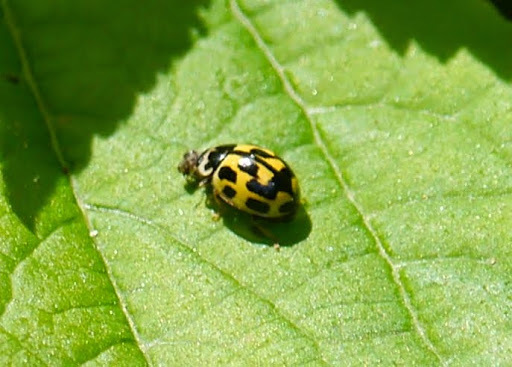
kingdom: Animalia
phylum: Arthropoda
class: Insecta
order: Coleoptera
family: Coccinellidae
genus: Propylaea
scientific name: Propylaea quatuordecimpunctata
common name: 14-spotted ladybird beetle
